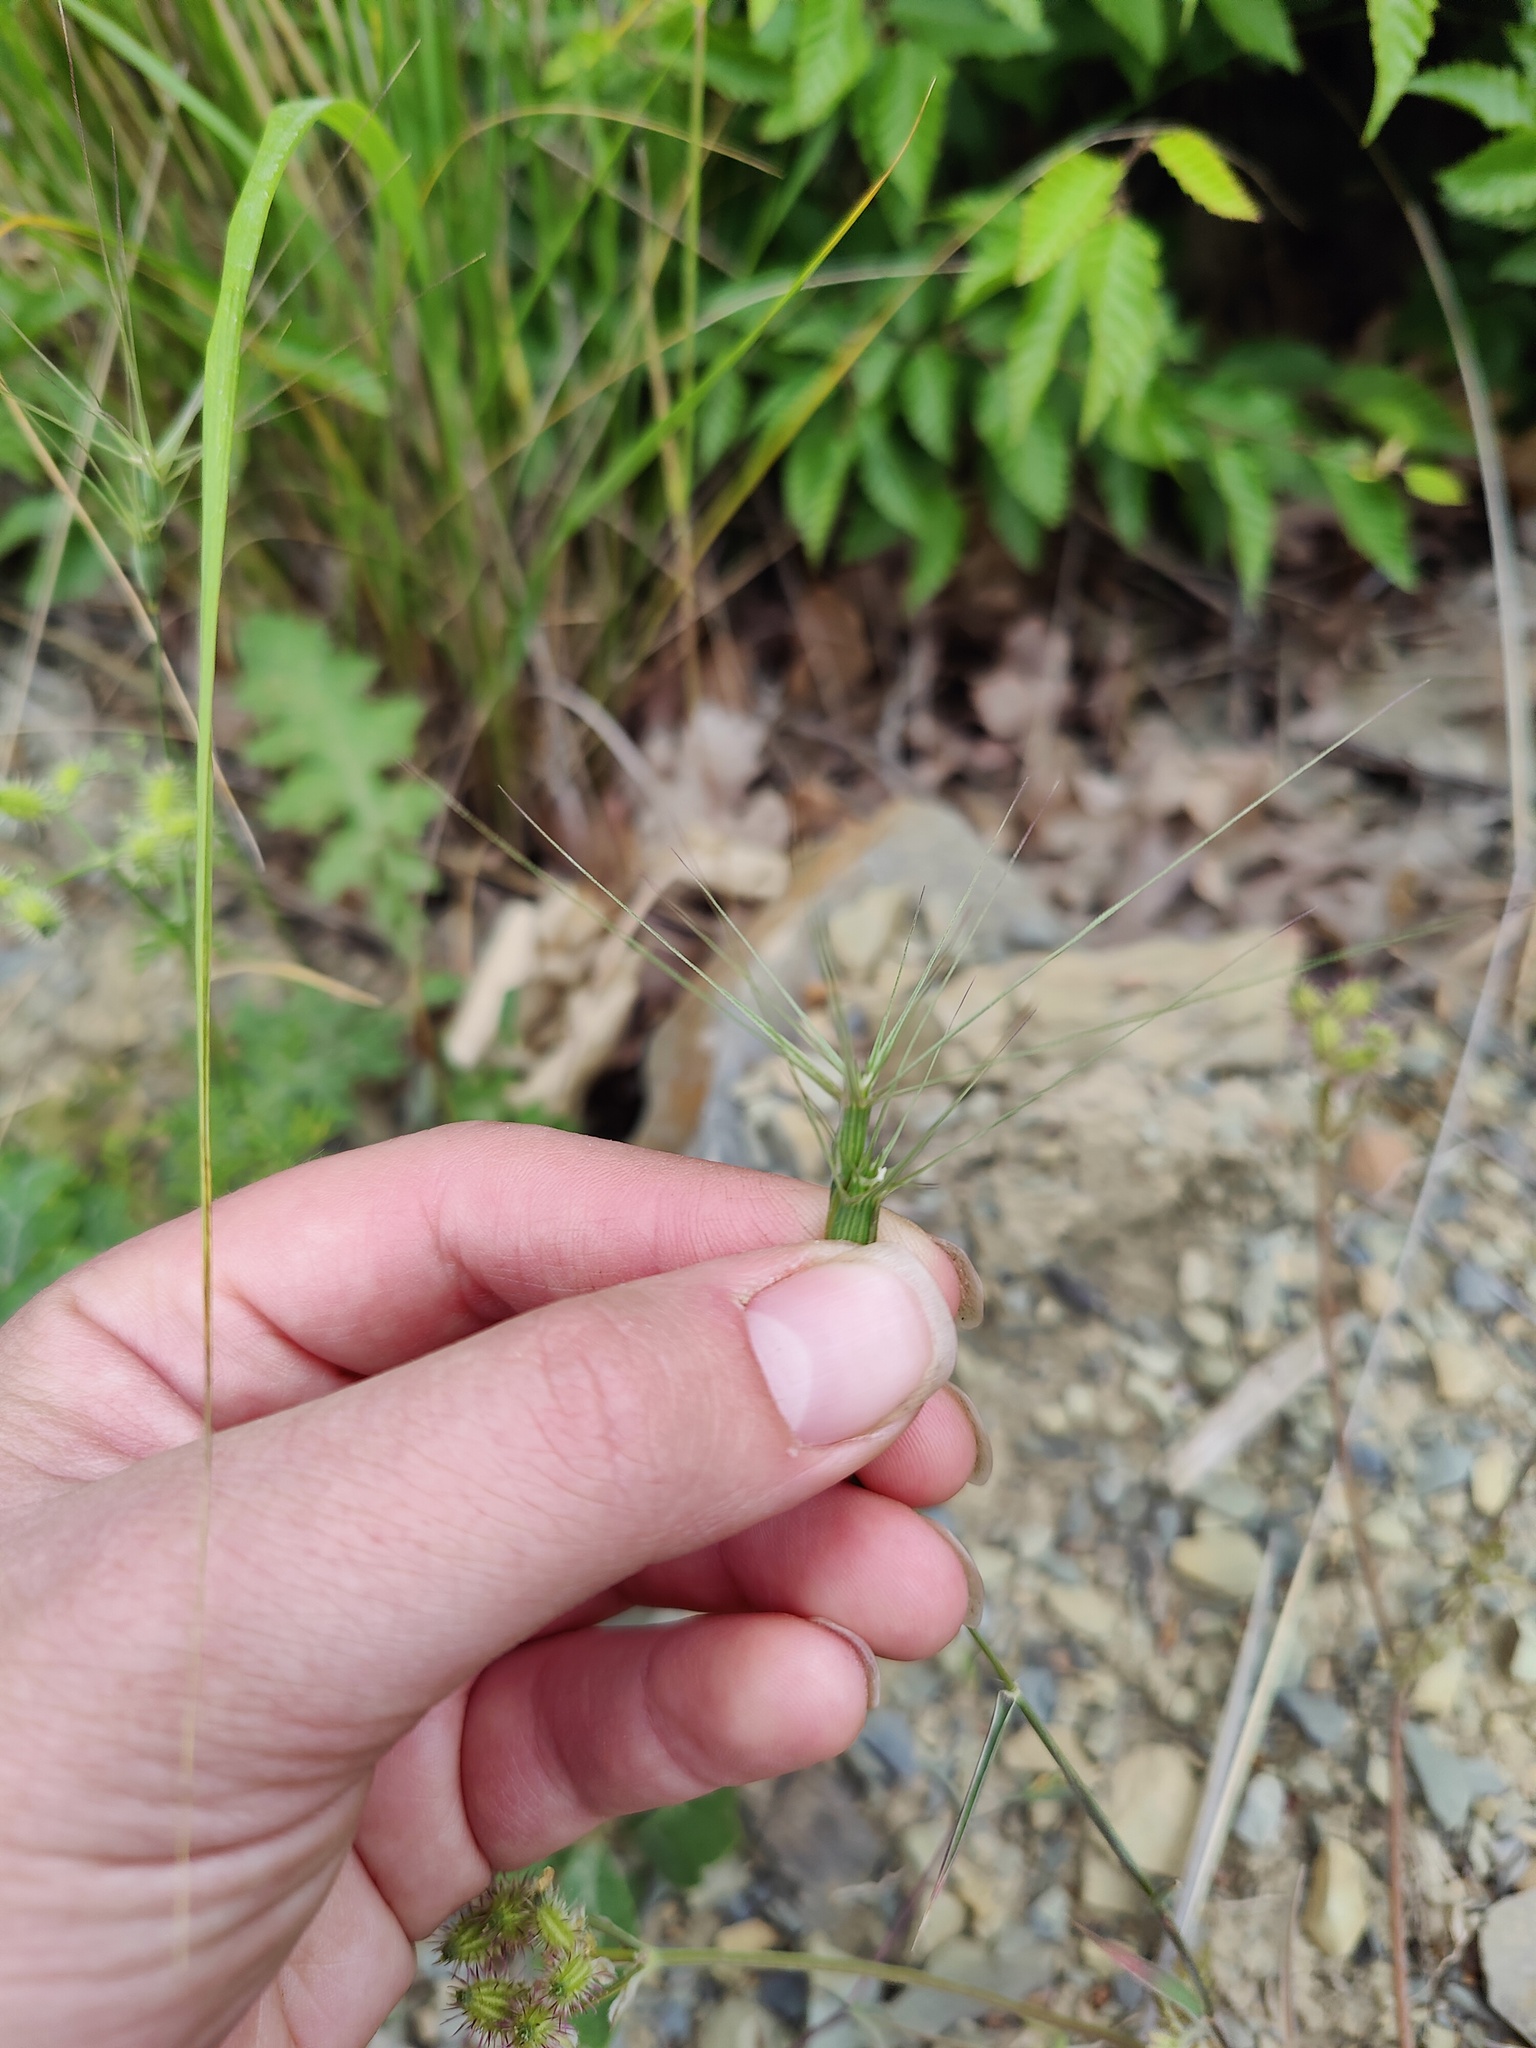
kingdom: Plantae
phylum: Tracheophyta
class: Liliopsida
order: Poales
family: Poaceae
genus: Aegilops
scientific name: Aegilops biuncialis
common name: Mediterranean aegilops
